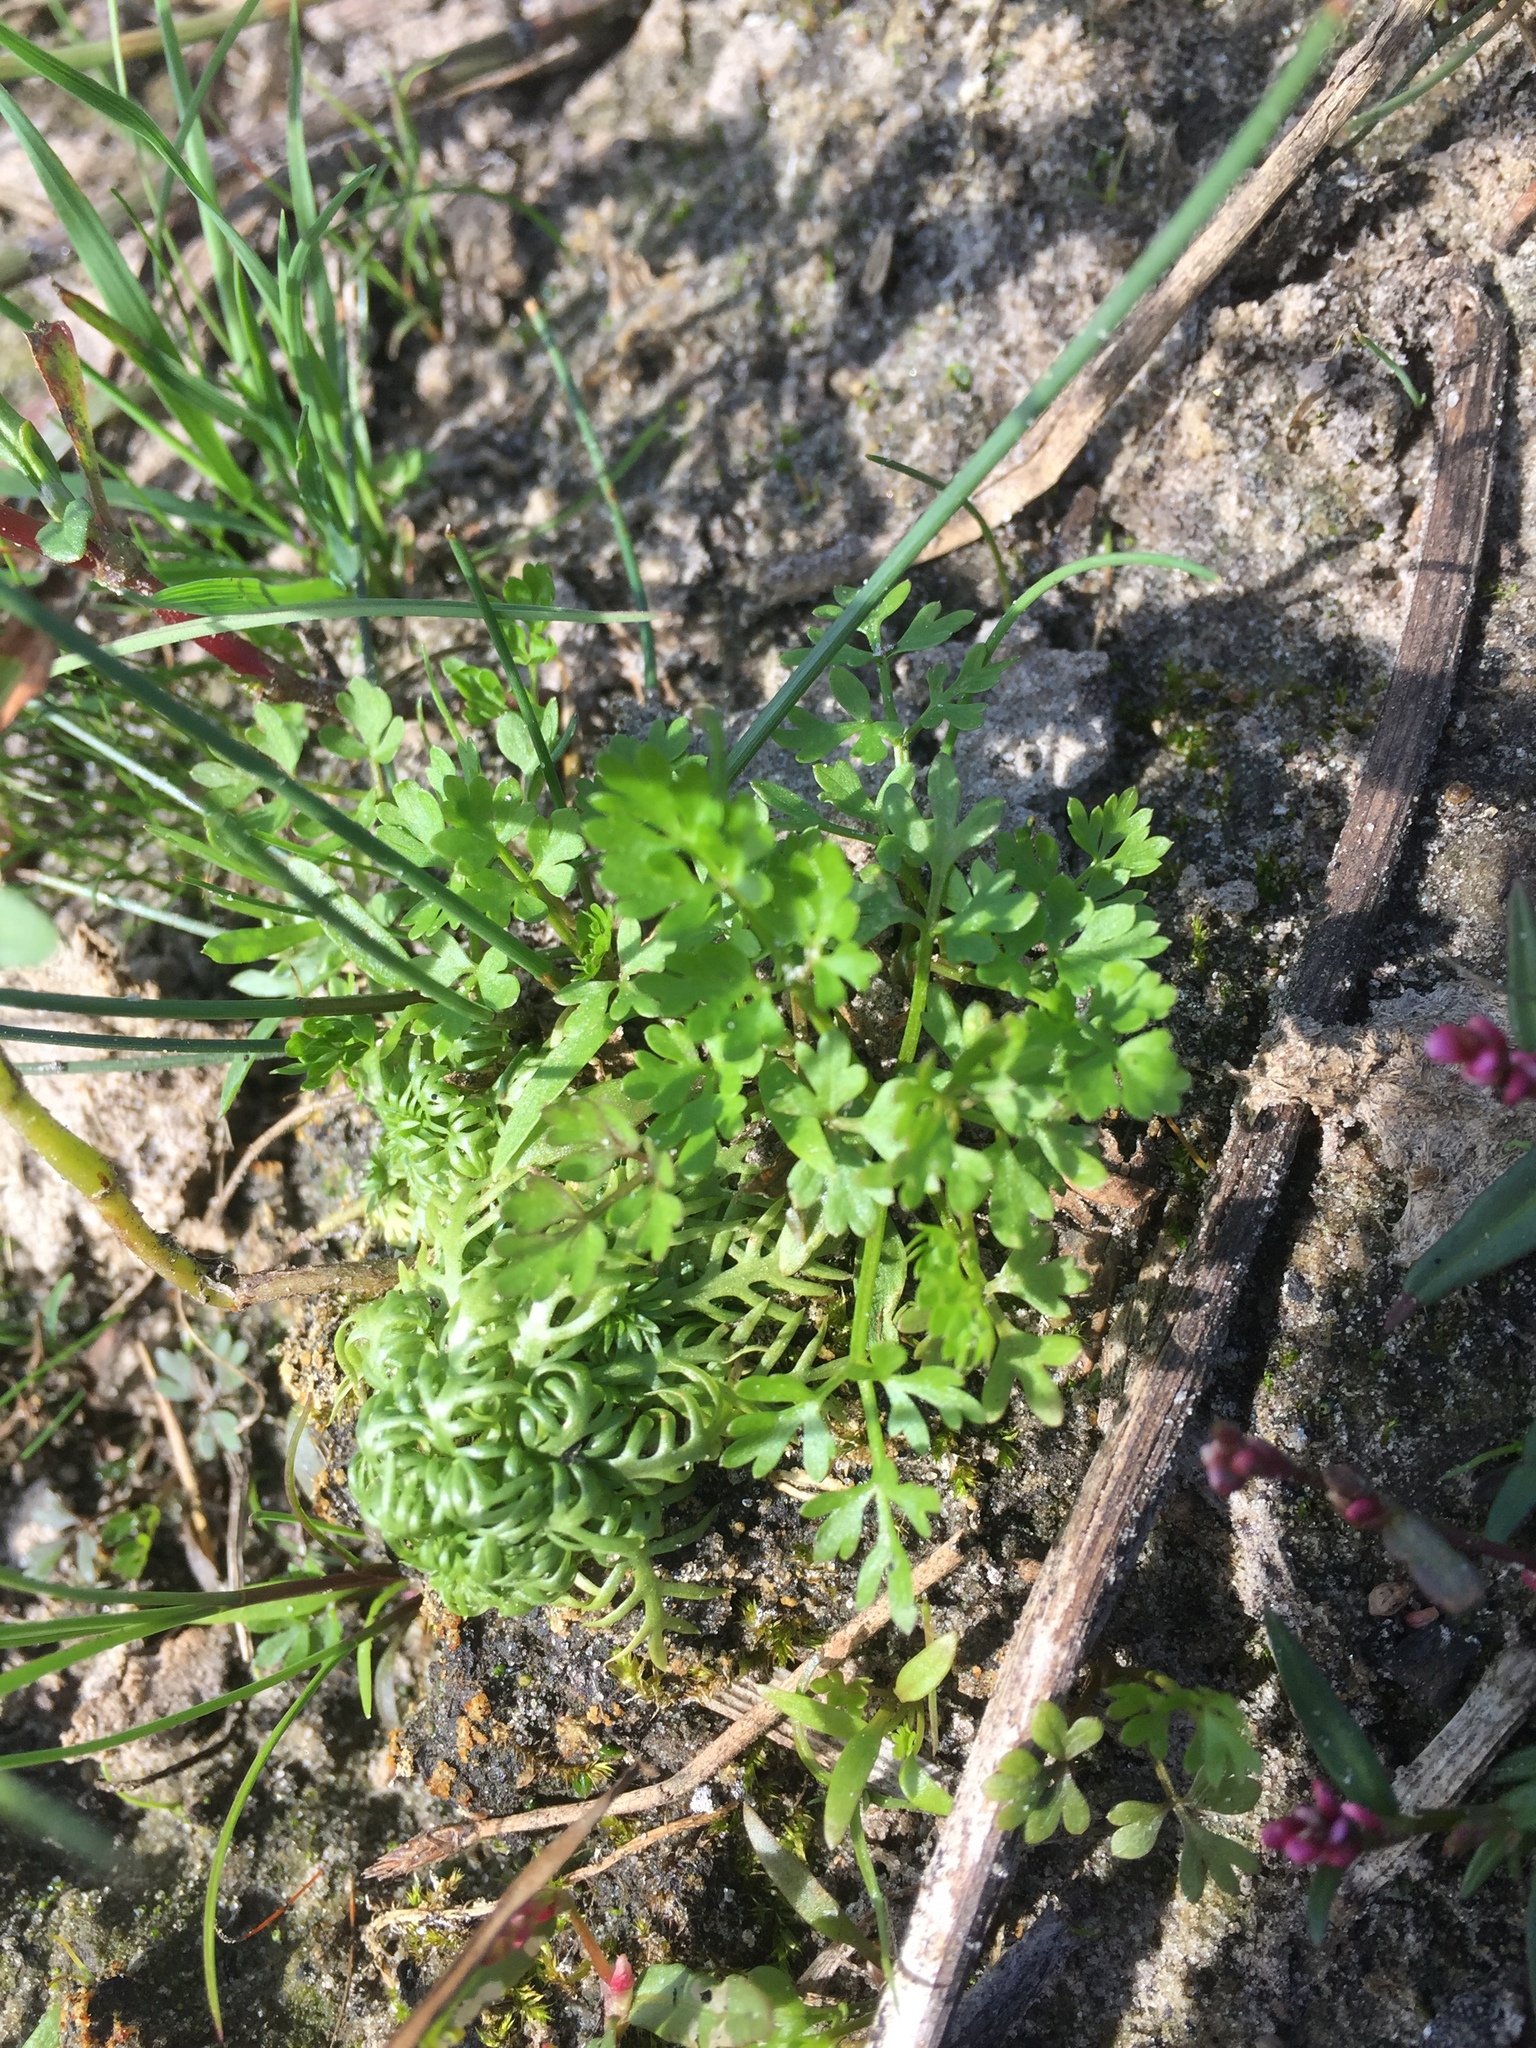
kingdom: Plantae
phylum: Tracheophyta
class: Magnoliopsida
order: Ericales
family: Primulaceae
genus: Hottonia
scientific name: Hottonia palustris
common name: Water-violet
